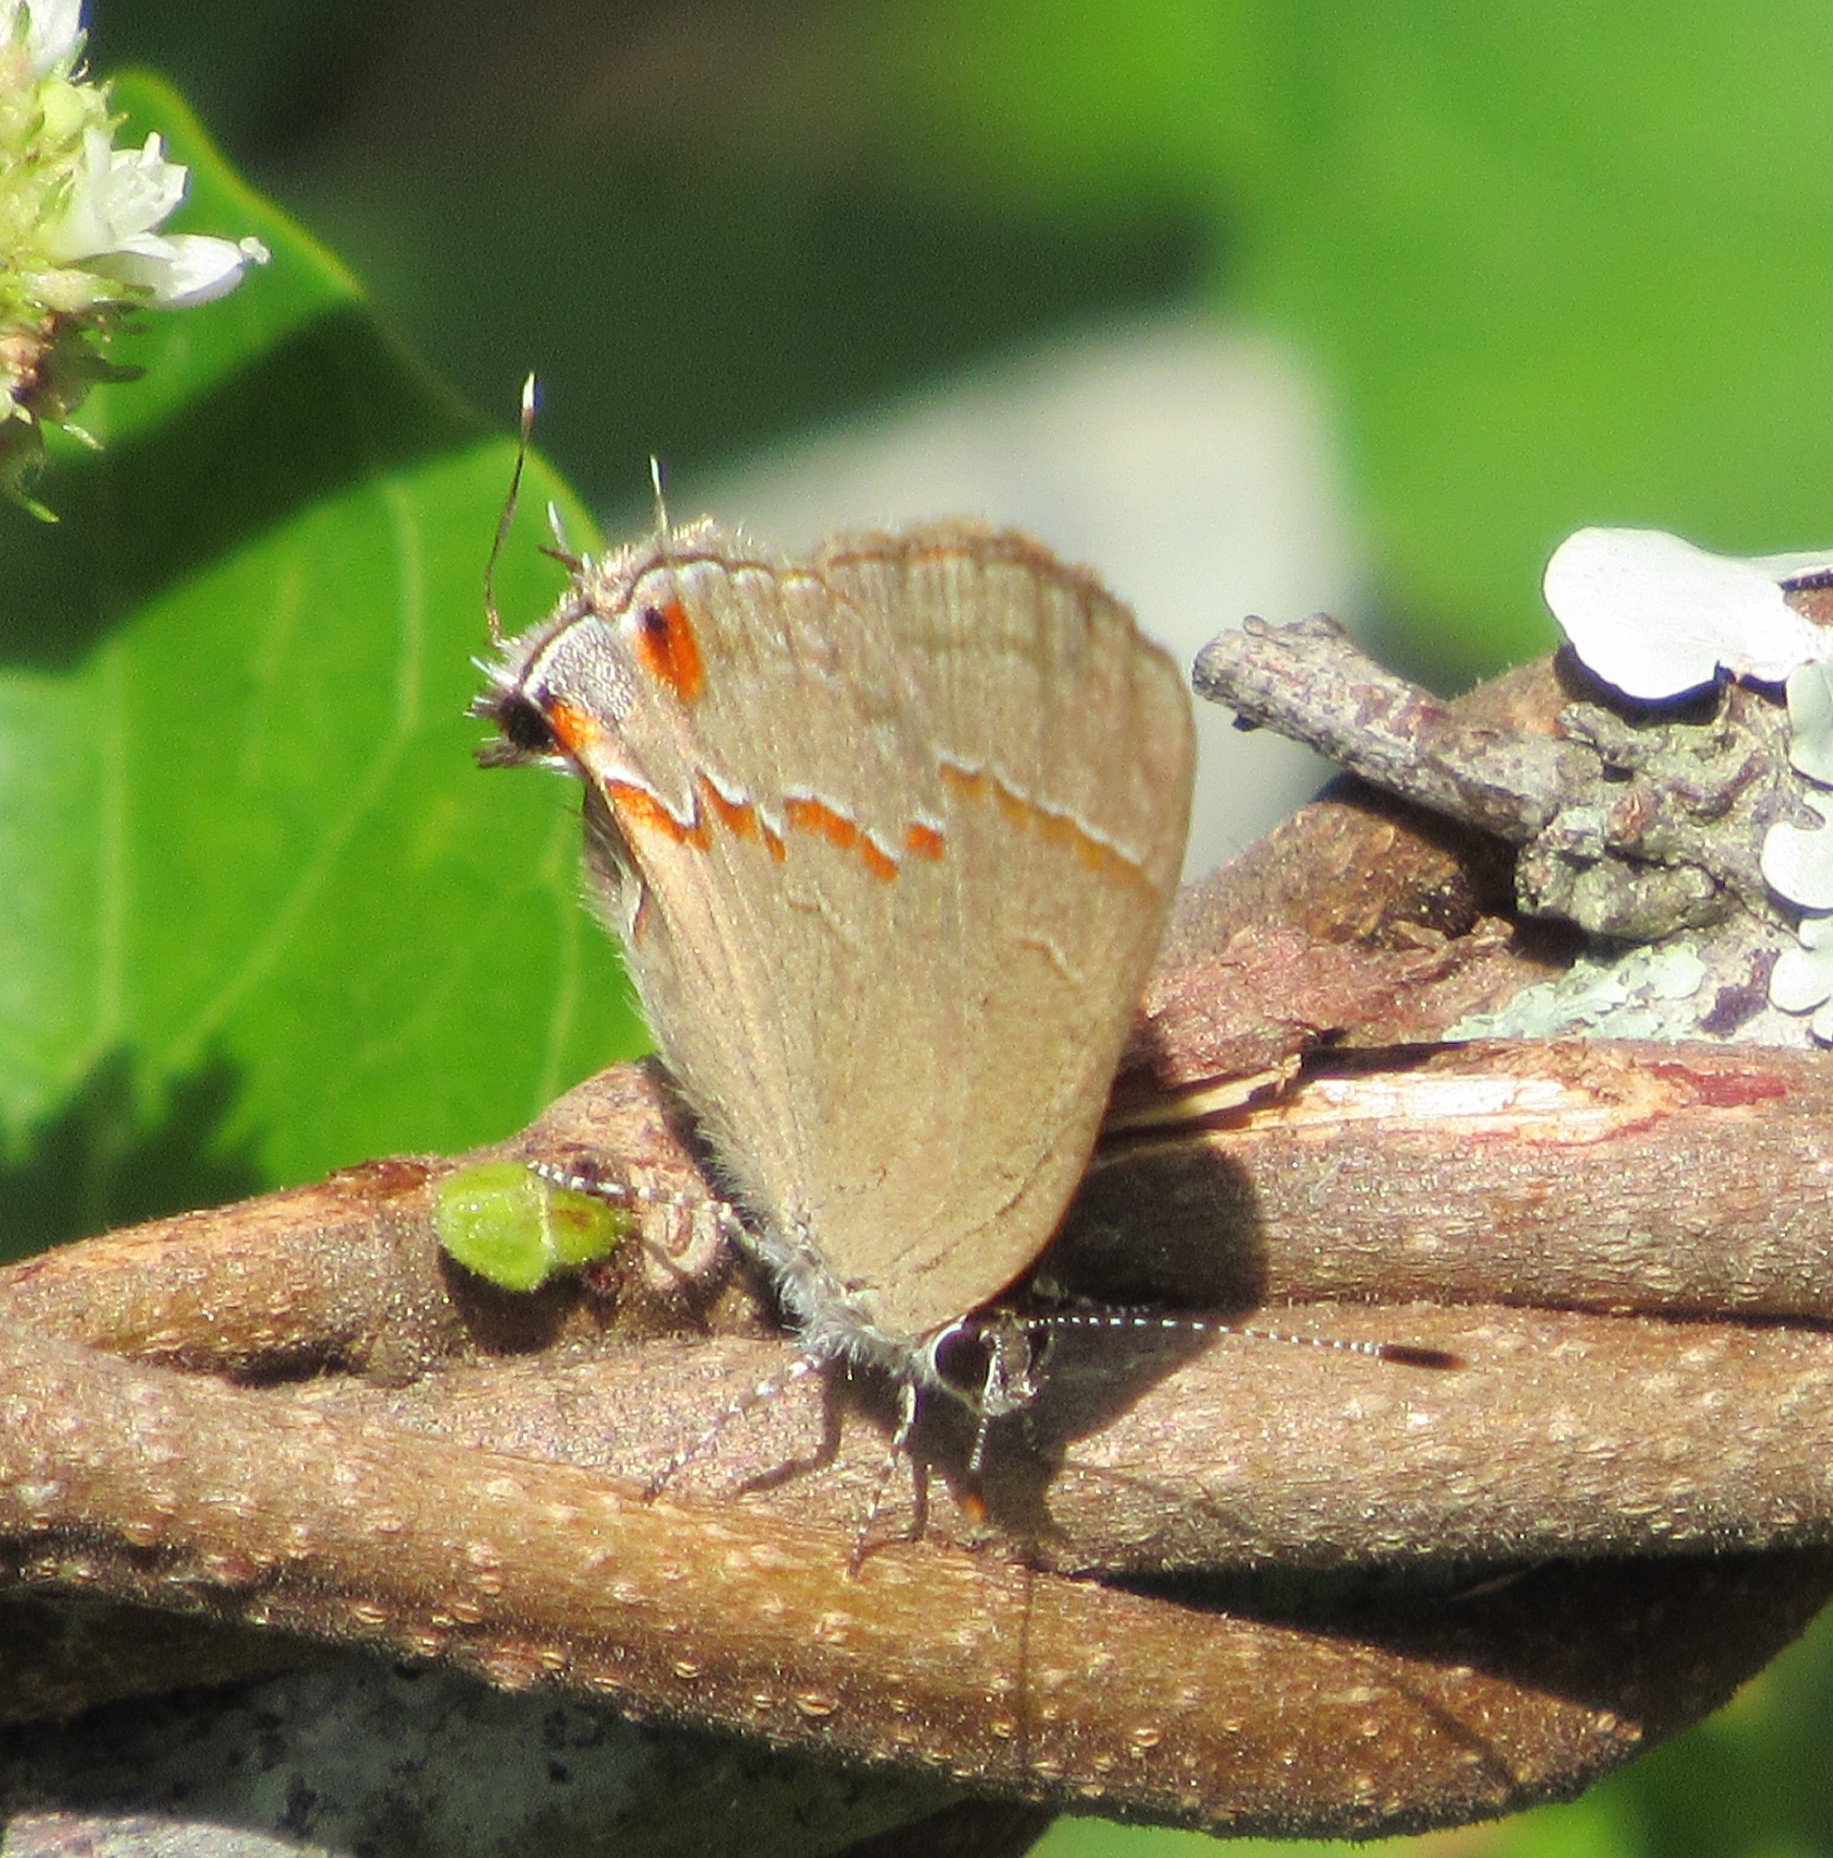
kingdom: Animalia
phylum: Arthropoda
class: Insecta
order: Lepidoptera
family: Lycaenidae
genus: Arzecla
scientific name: Arzecla tucumanensis
